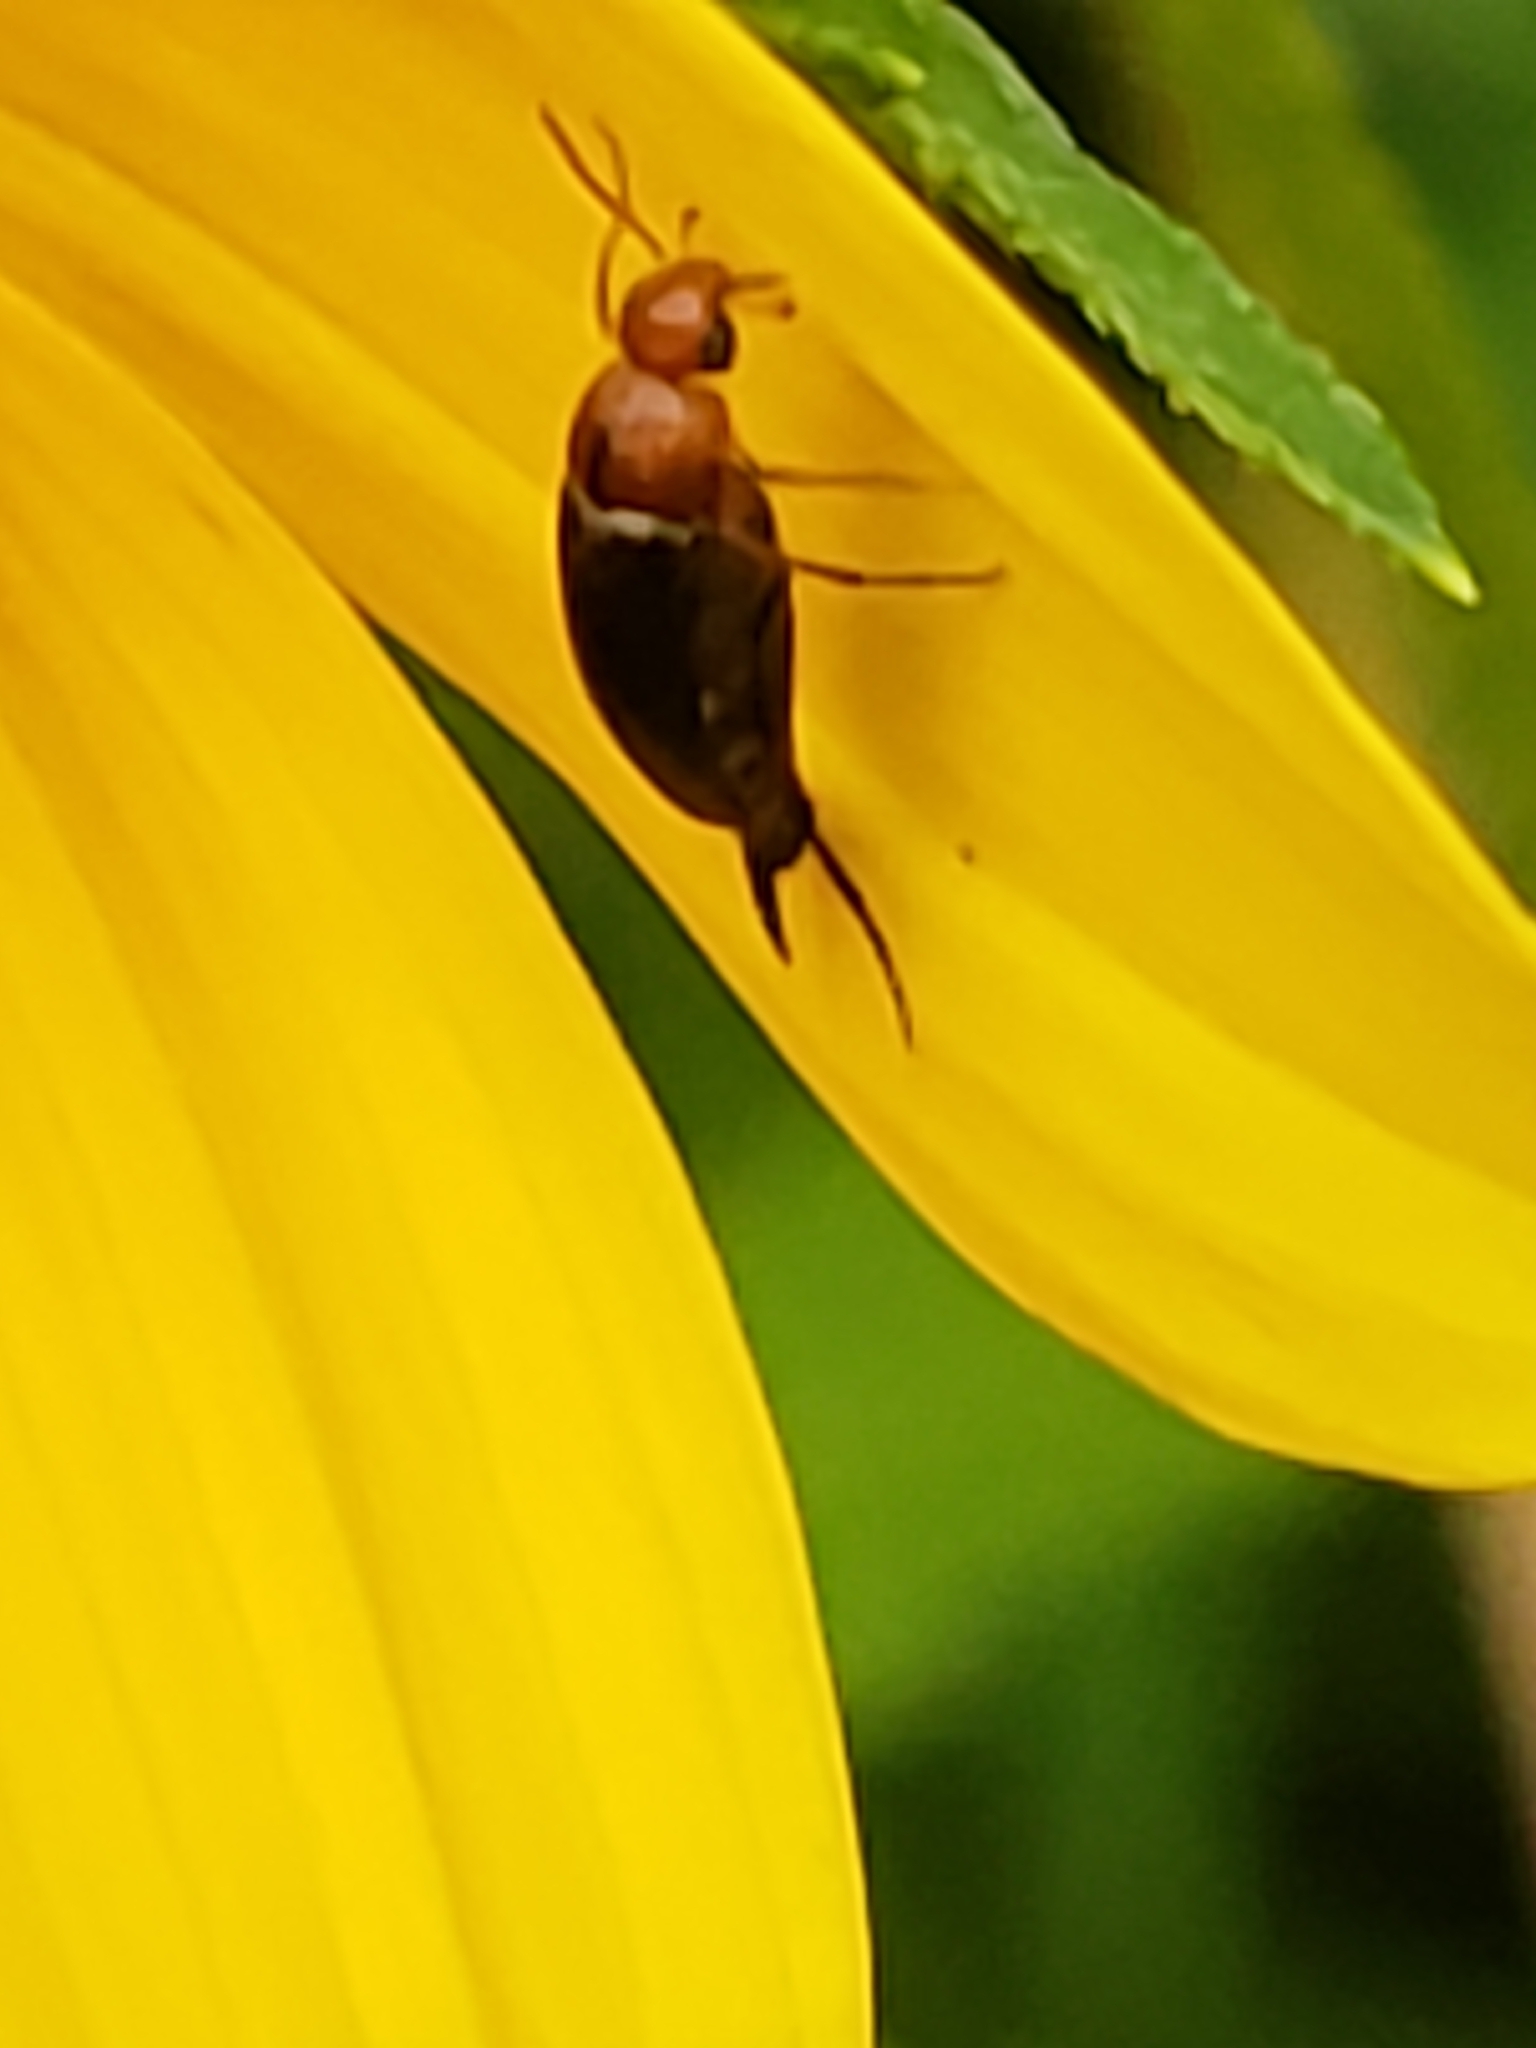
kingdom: Animalia
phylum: Arthropoda
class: Insecta
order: Coleoptera
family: Mordellidae
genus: Mordellistena
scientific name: Mordellistena cervicalis
